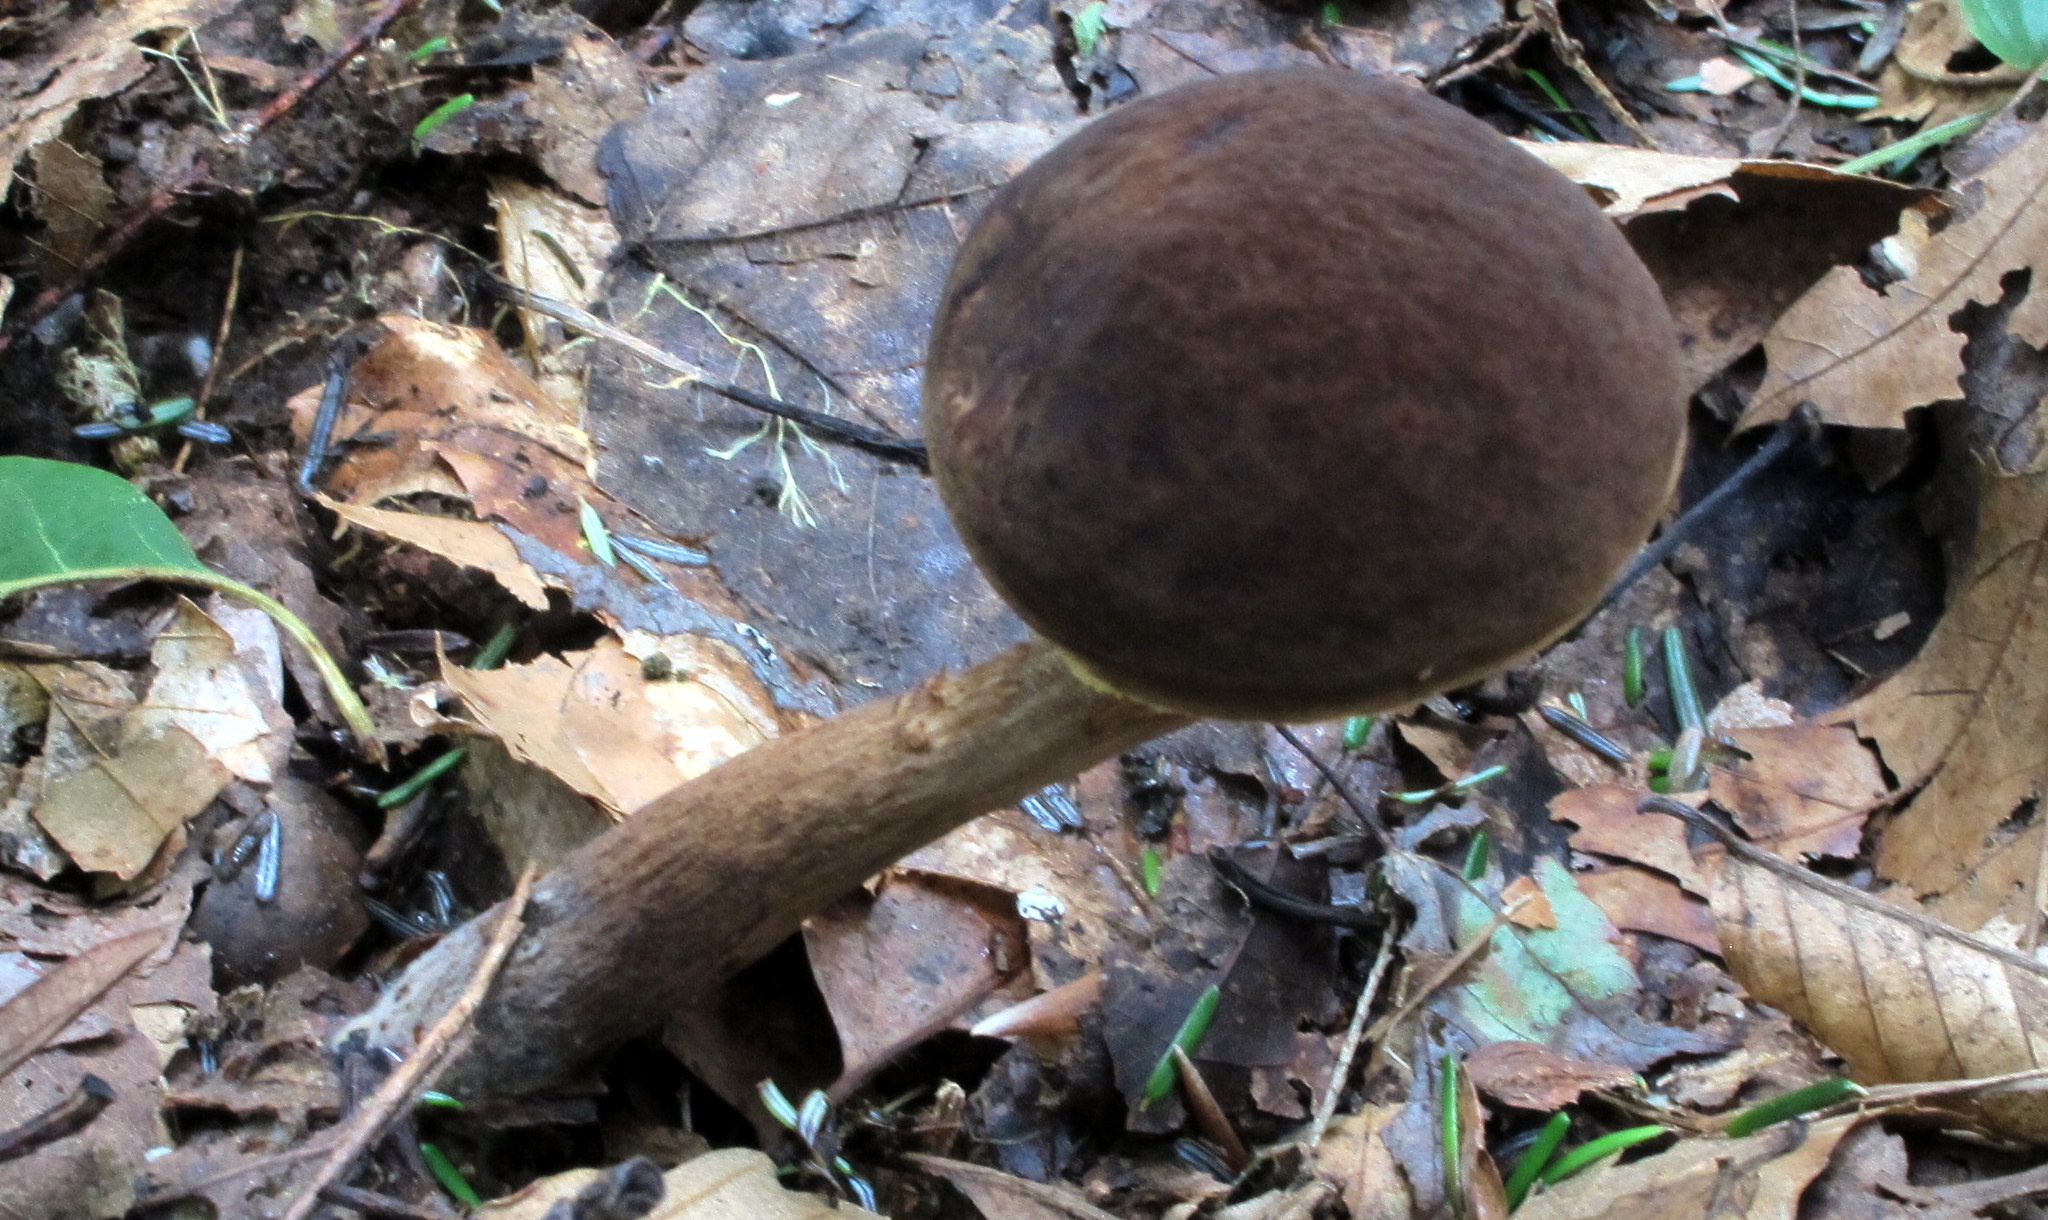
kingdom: Fungi
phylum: Basidiomycota
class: Agaricomycetes
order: Boletales
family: Boletaceae
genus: Boletellus
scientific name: Boletellus chrysenteroides
